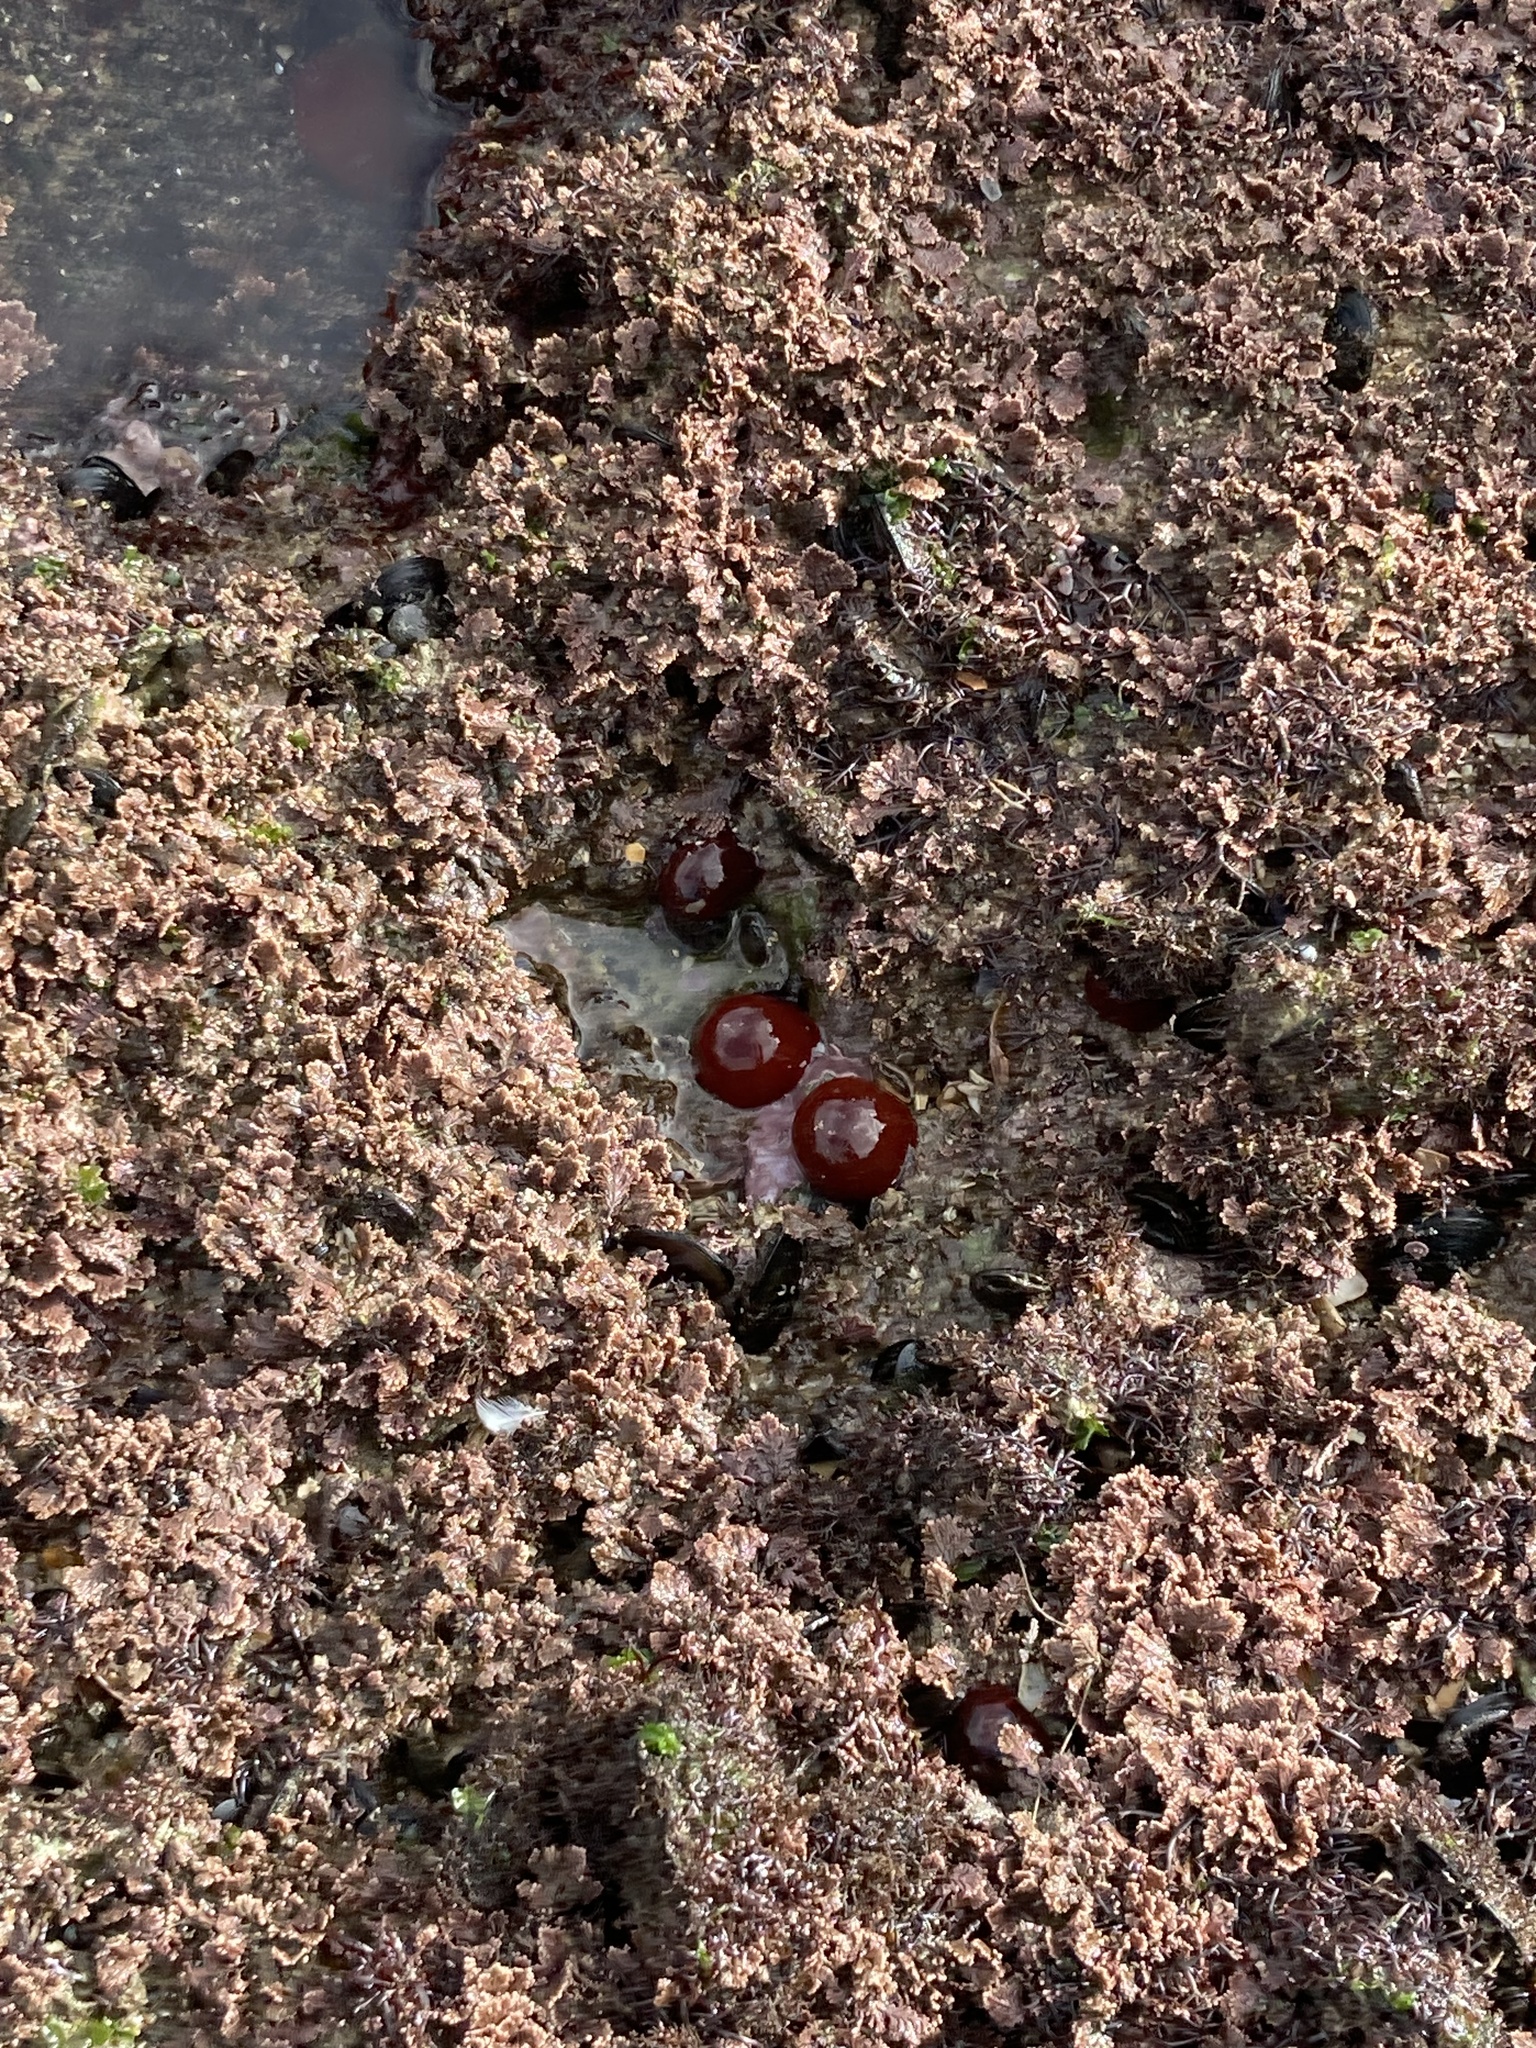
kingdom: Animalia
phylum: Cnidaria
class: Anthozoa
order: Actiniaria
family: Actiniidae
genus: Actinia
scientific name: Actinia equina
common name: Beadlet anemone
